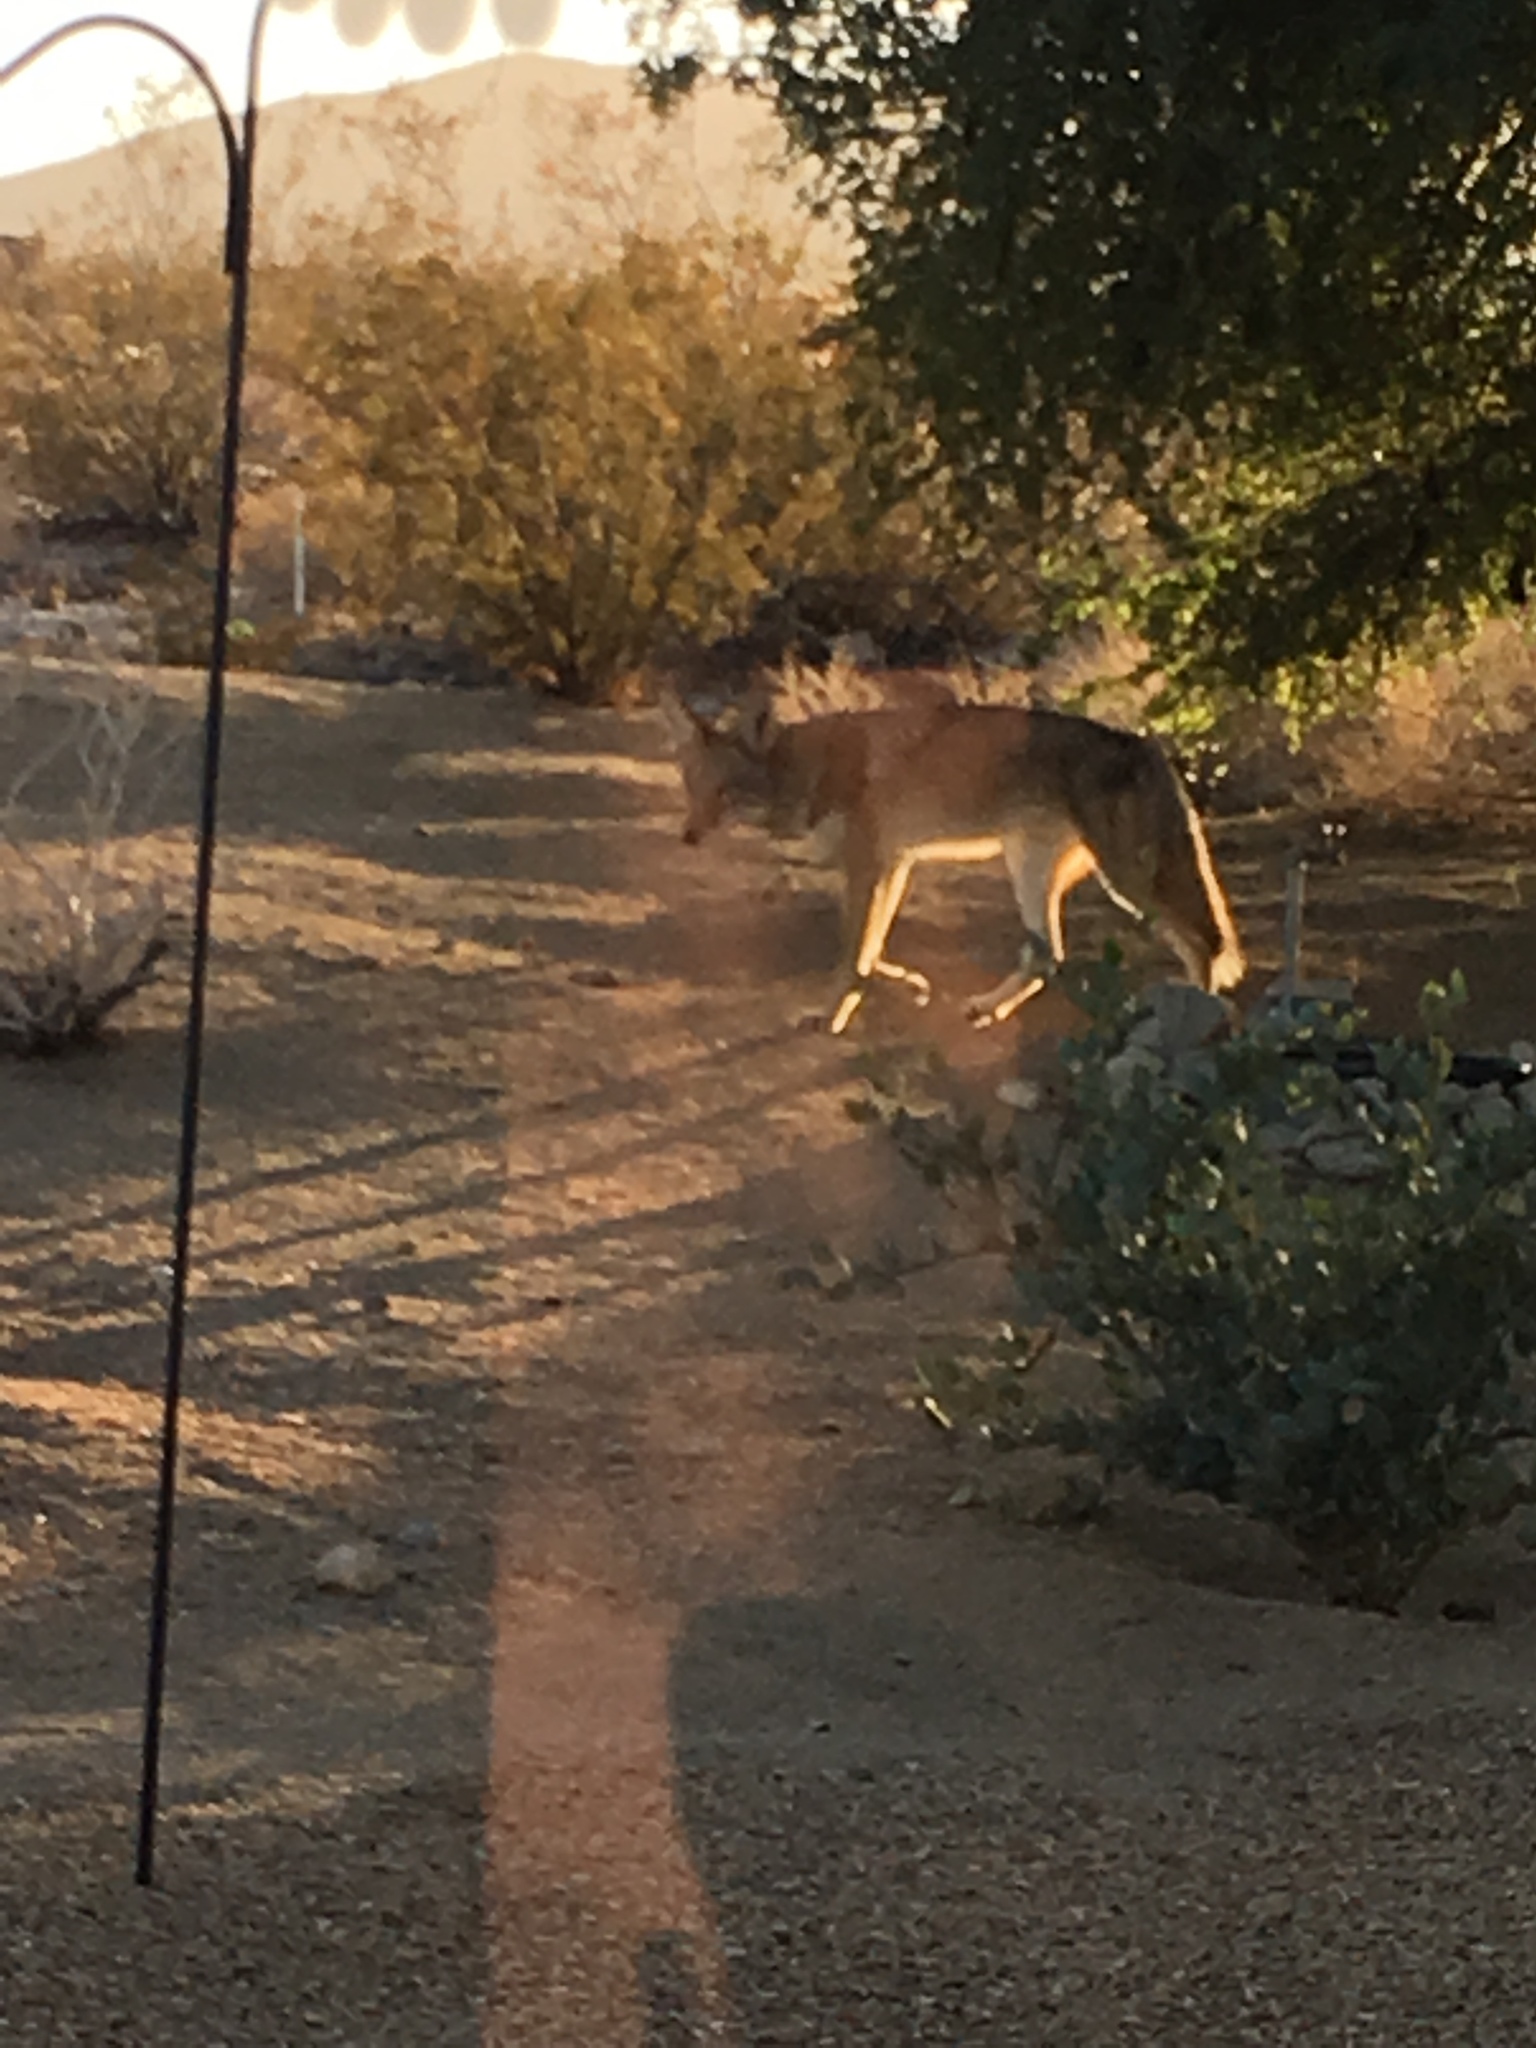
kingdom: Animalia
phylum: Chordata
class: Mammalia
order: Carnivora
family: Canidae
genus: Canis
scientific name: Canis latrans
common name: Coyote
